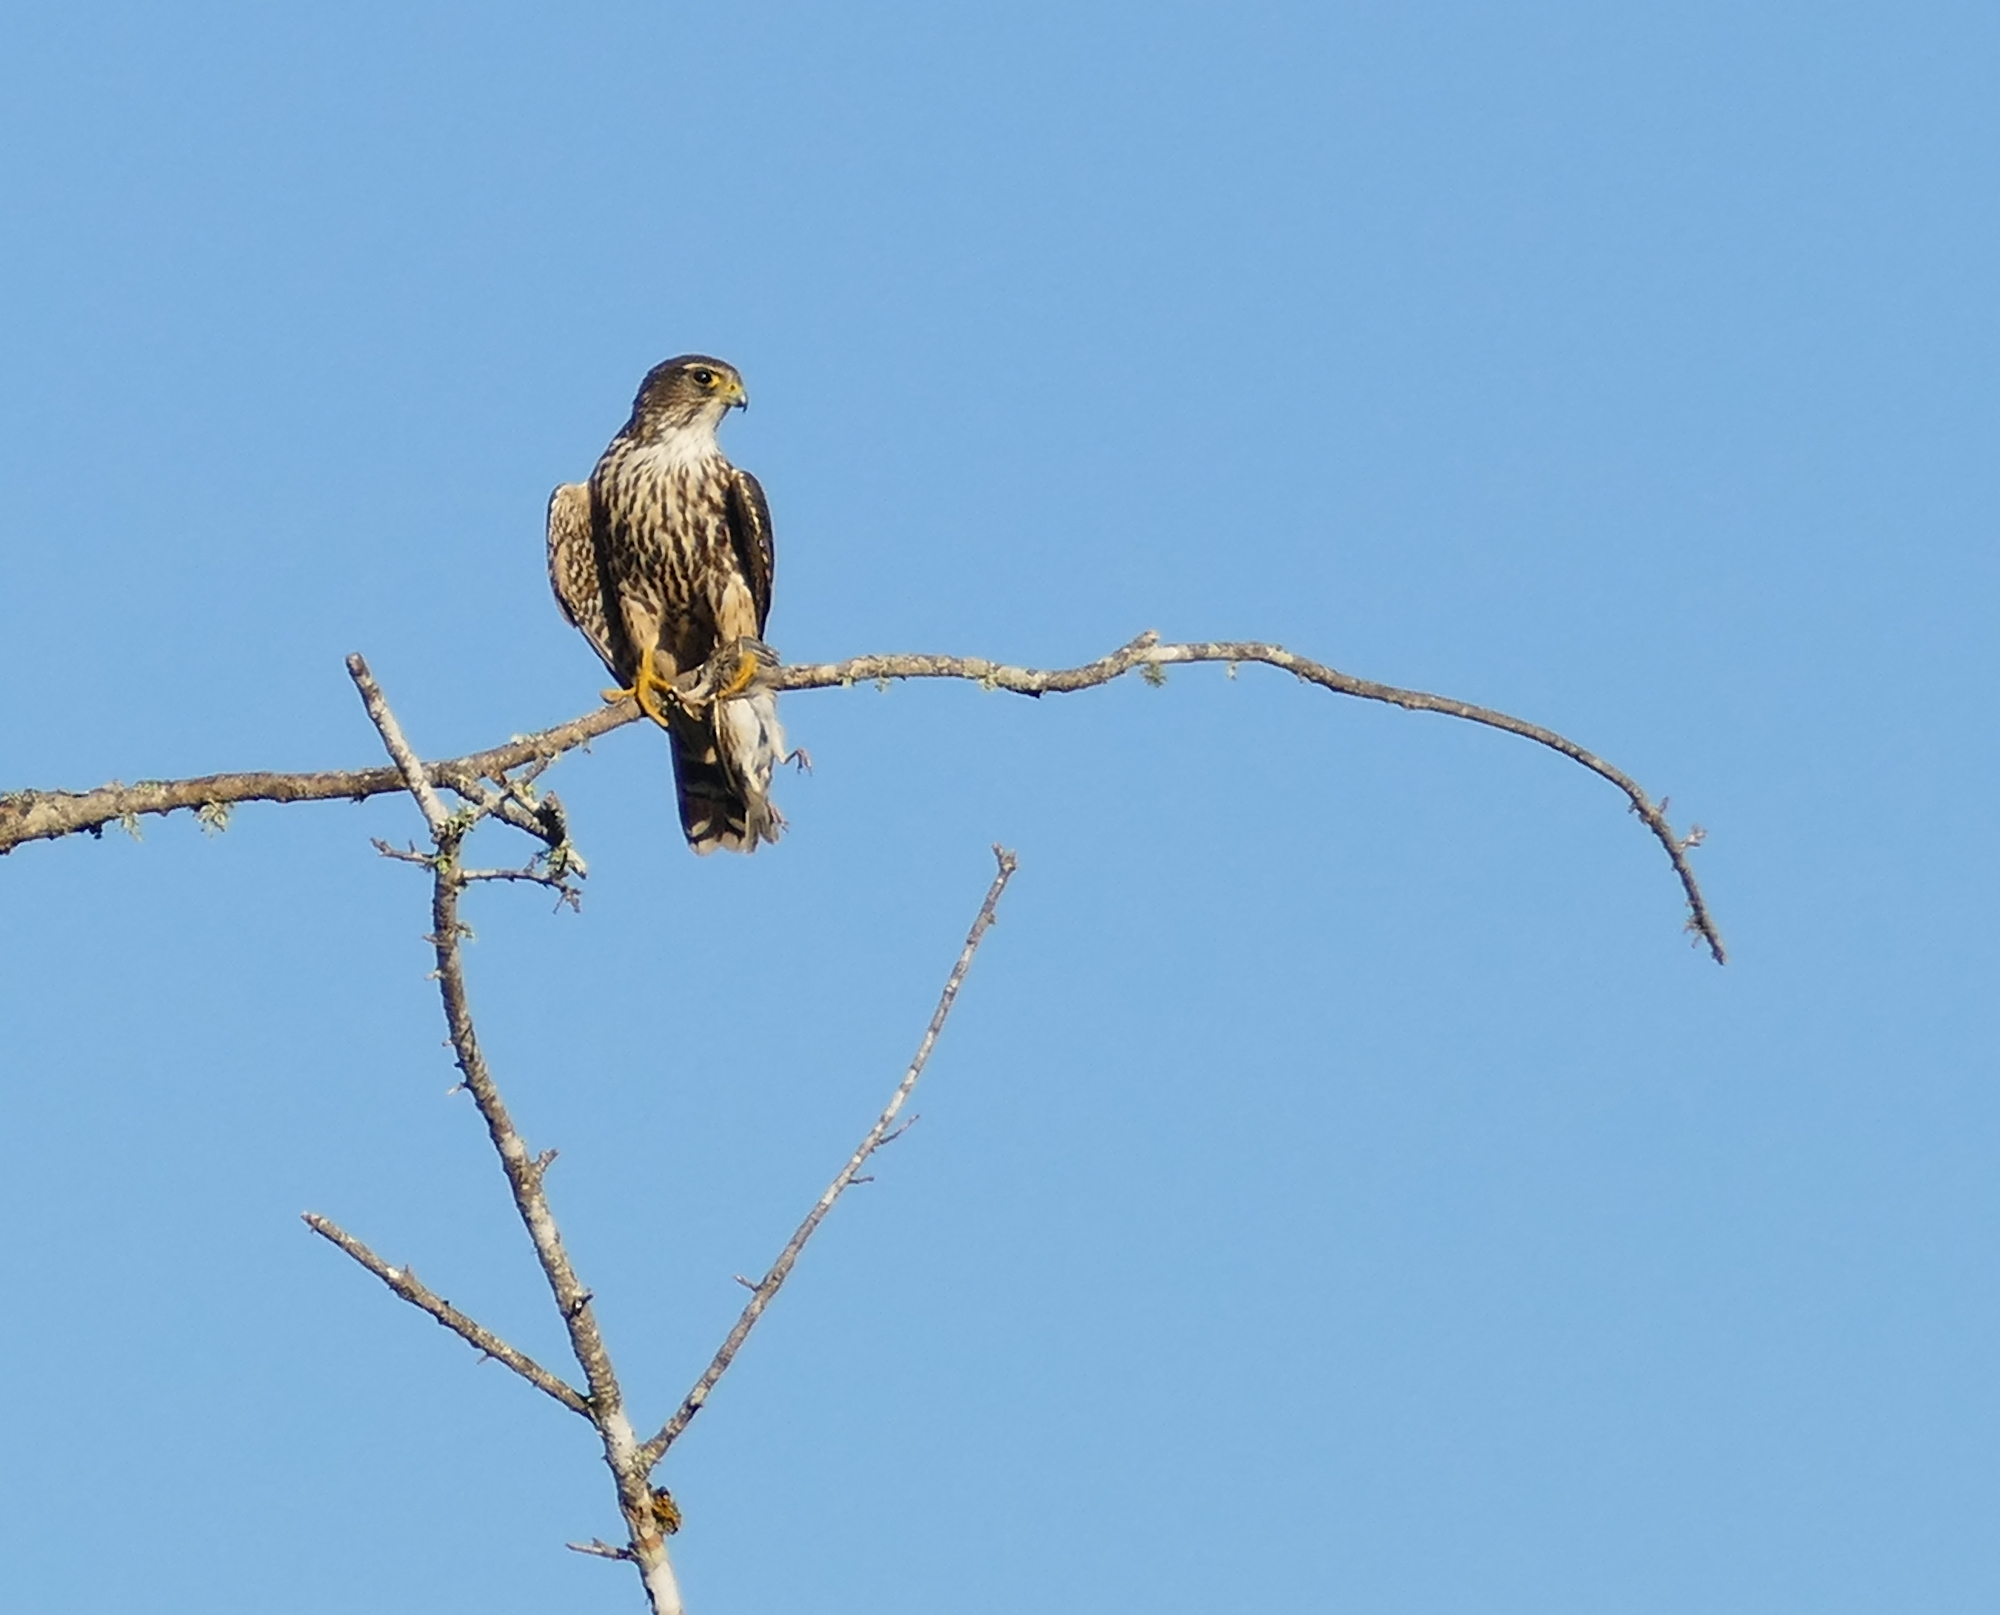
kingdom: Animalia
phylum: Chordata
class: Aves
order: Falconiformes
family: Falconidae
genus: Falco
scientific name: Falco columbarius
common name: Merlin
